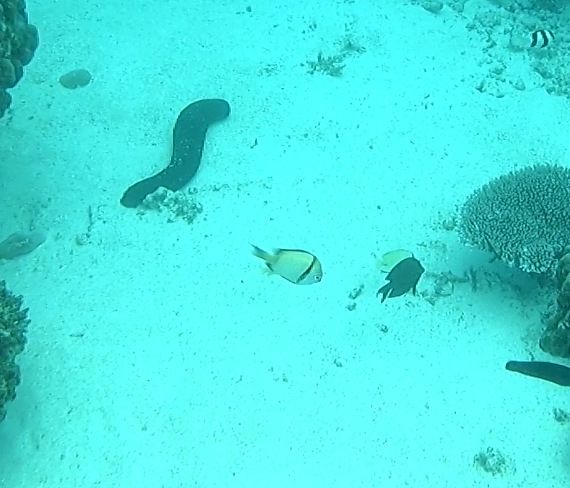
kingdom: Animalia
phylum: Chordata
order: Perciformes
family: Pomacentridae
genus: Dascyllus
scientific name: Dascyllus reticulatus
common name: Reticulated dascyllus
